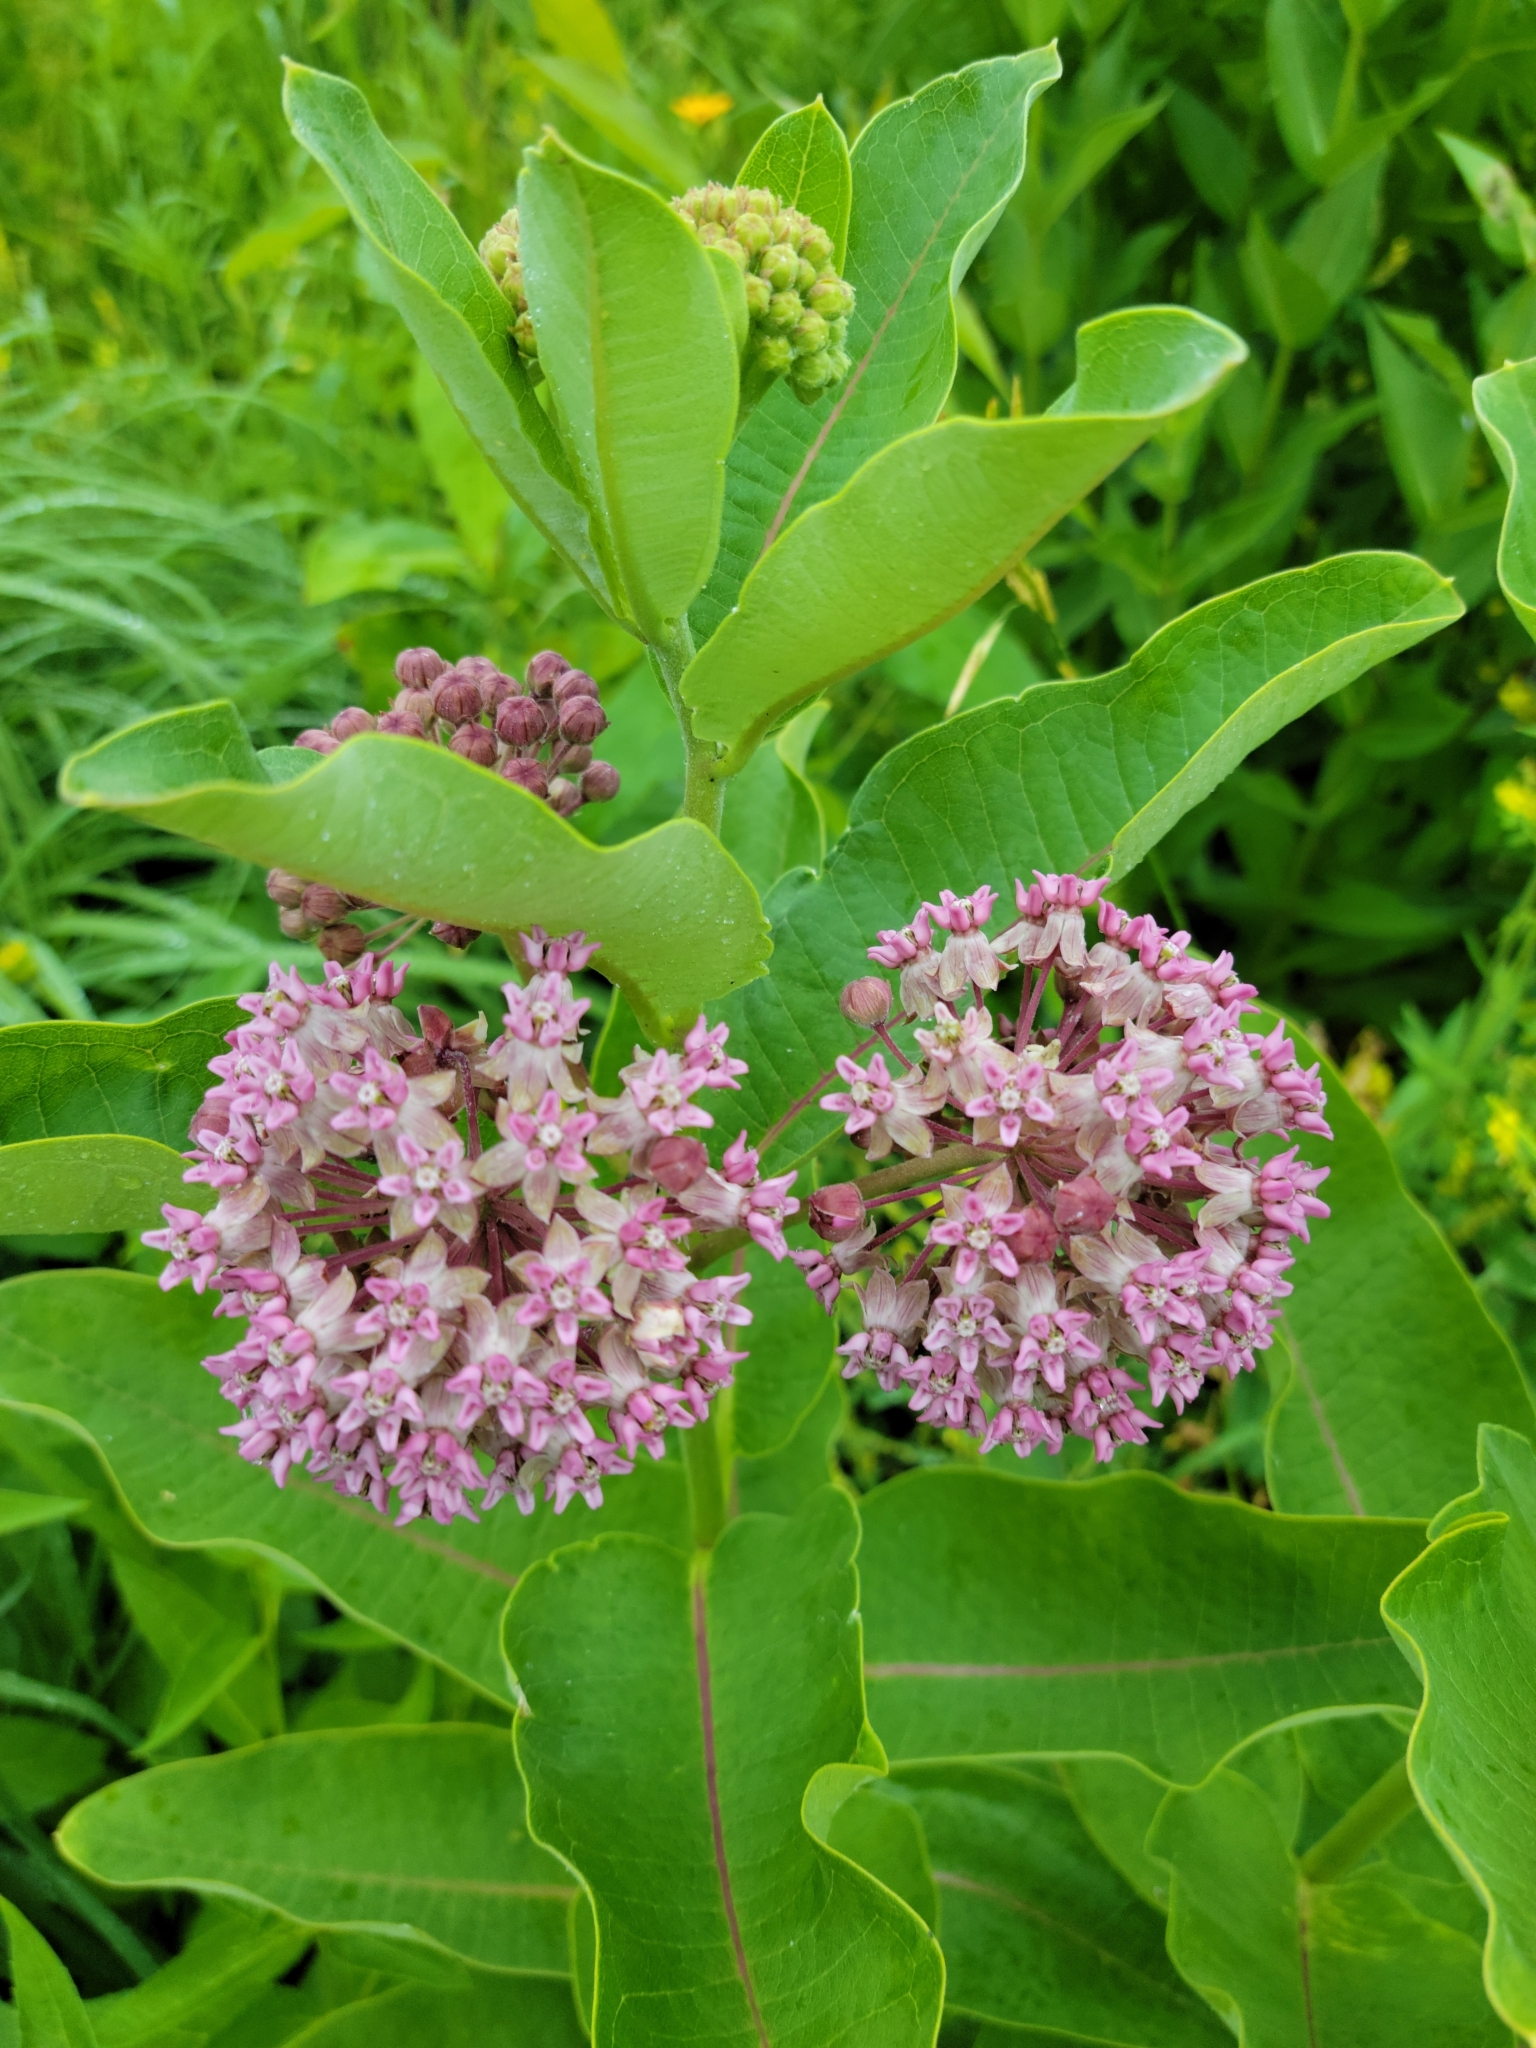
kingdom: Plantae
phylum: Tracheophyta
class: Magnoliopsida
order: Gentianales
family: Apocynaceae
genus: Asclepias
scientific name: Asclepias syriaca
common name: Common milkweed
